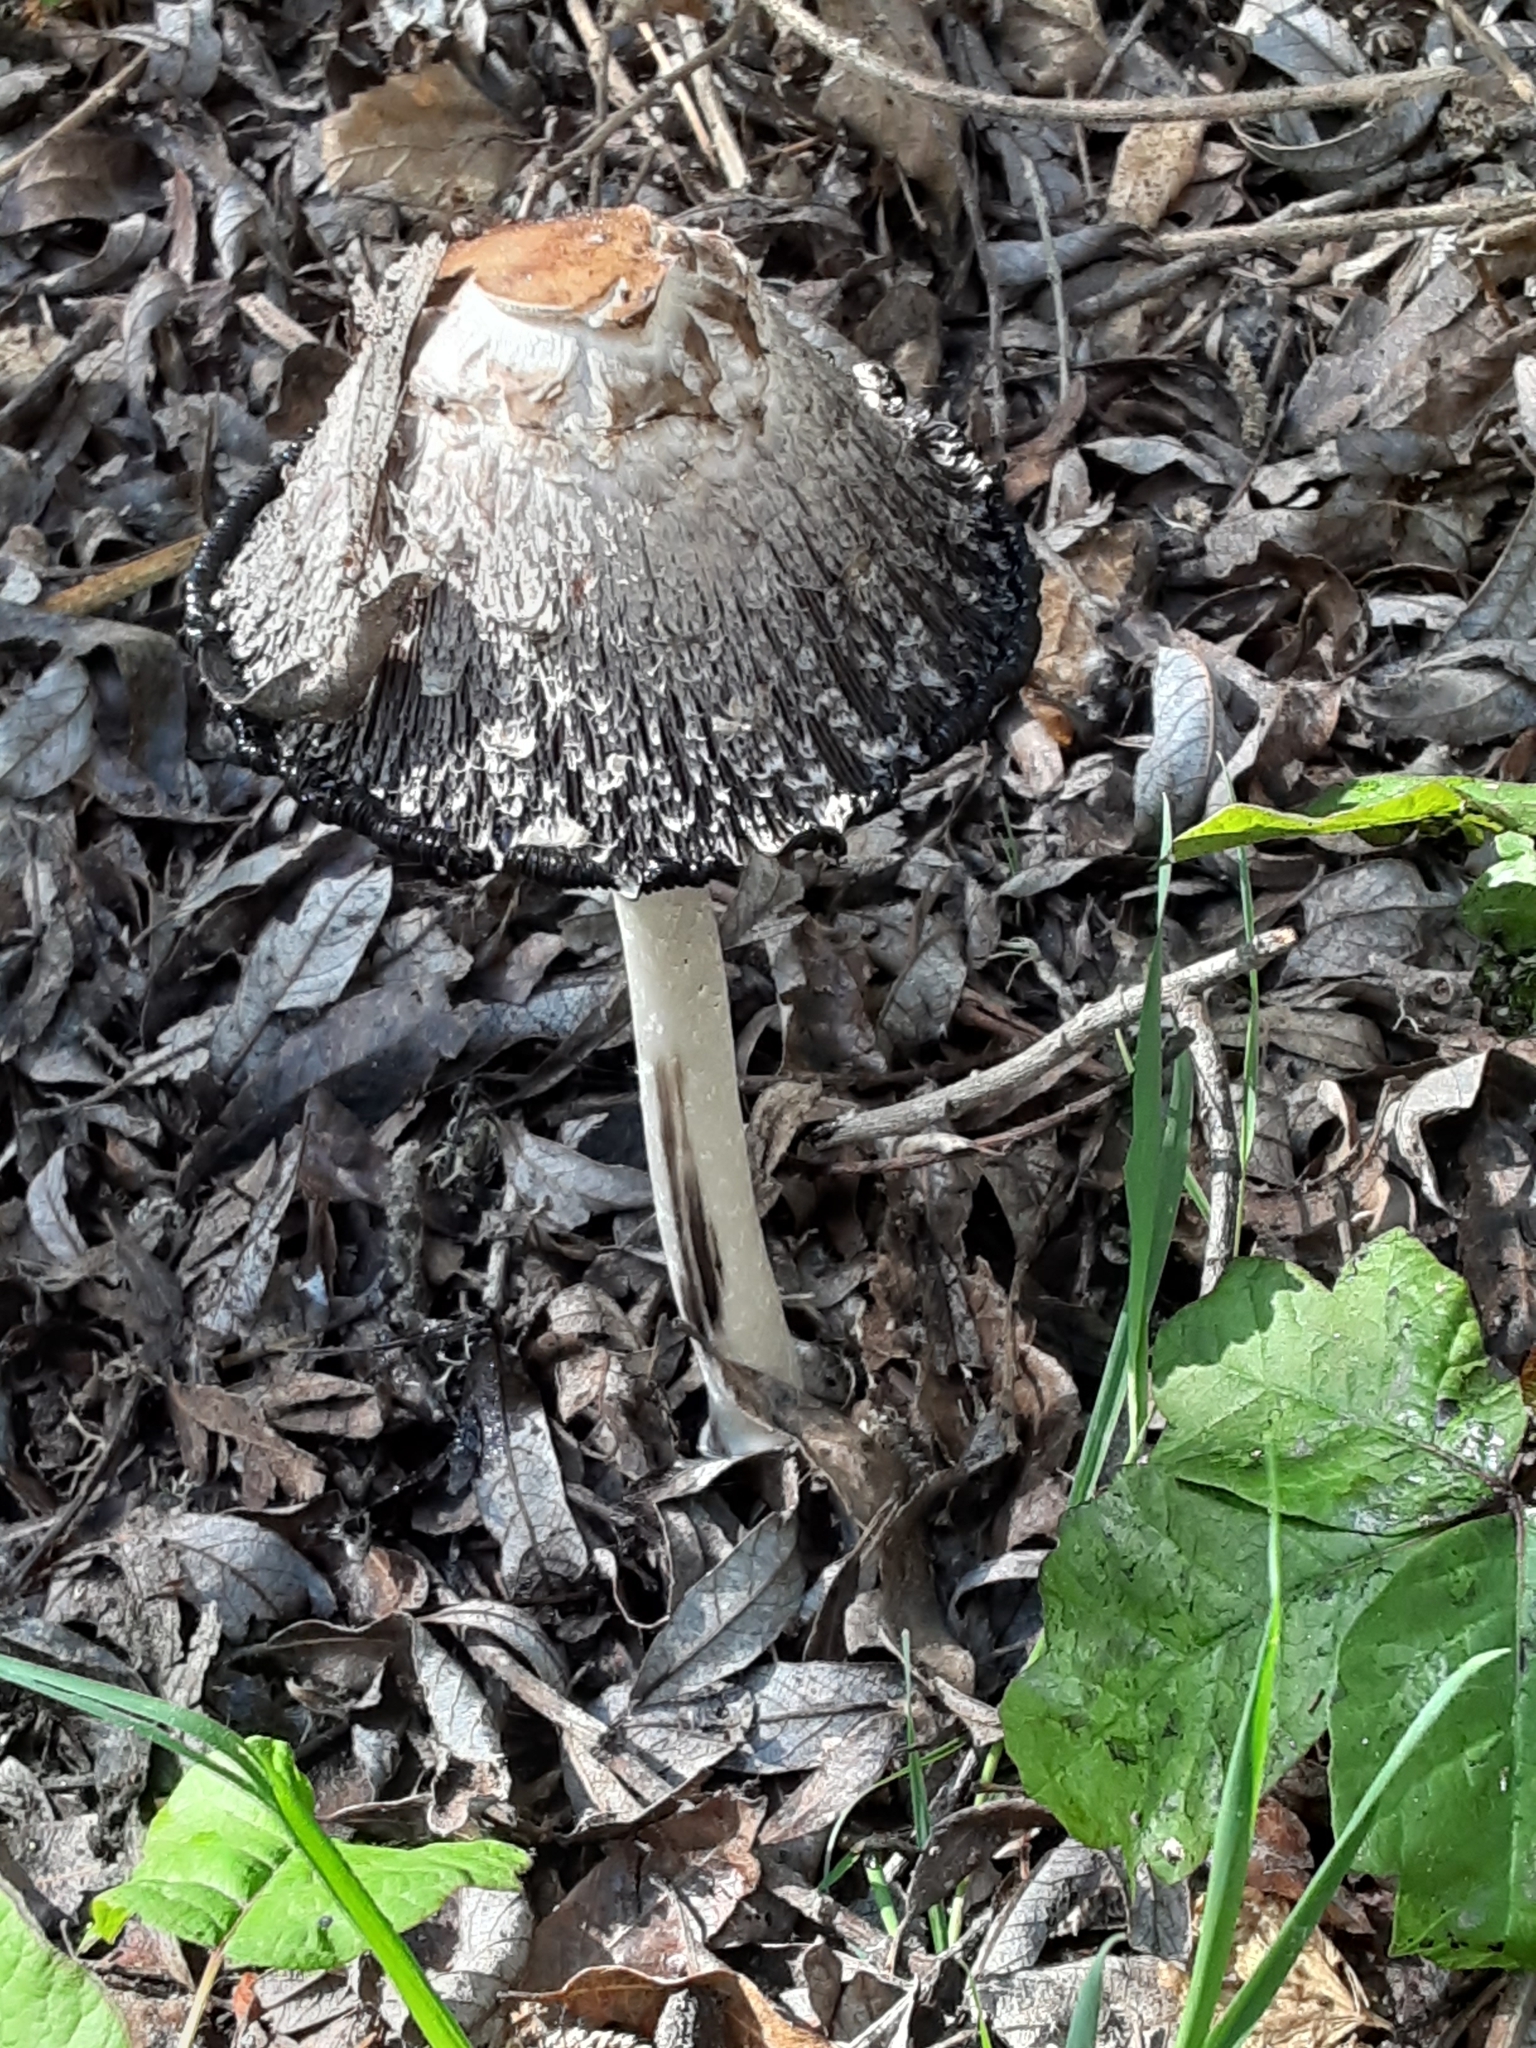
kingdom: Fungi
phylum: Basidiomycota
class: Agaricomycetes
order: Agaricales
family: Agaricaceae
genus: Coprinus
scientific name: Coprinus comatus
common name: Lawyer's wig
